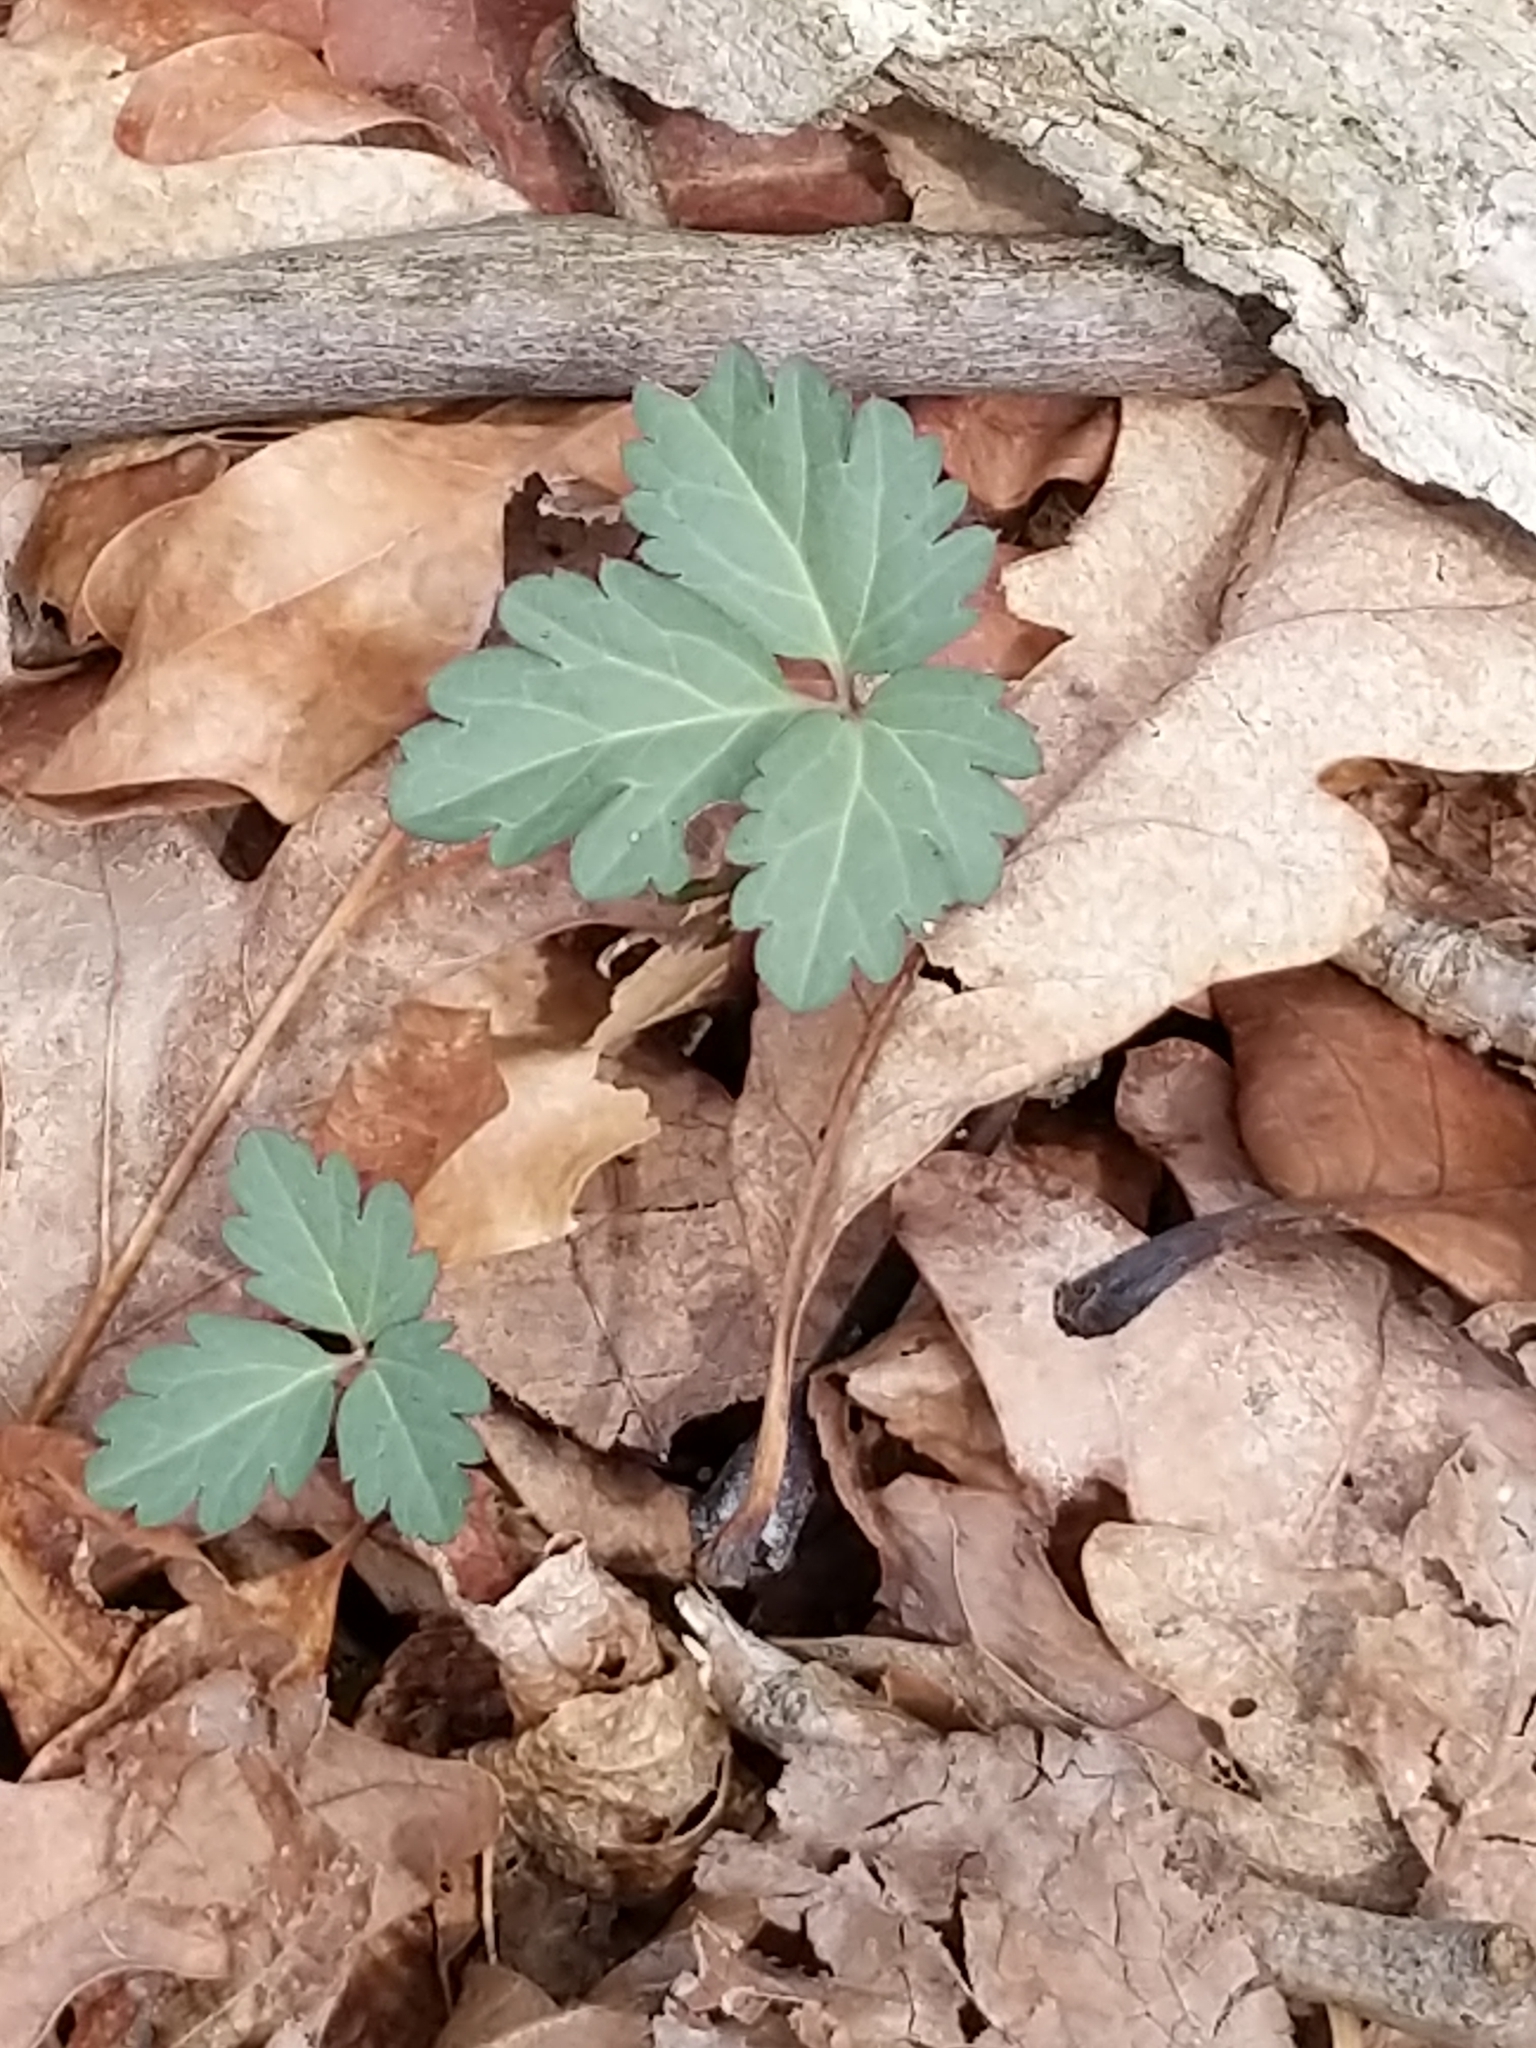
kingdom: Plantae
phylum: Tracheophyta
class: Magnoliopsida
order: Brassicales
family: Brassicaceae
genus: Cardamine
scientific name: Cardamine angustata
